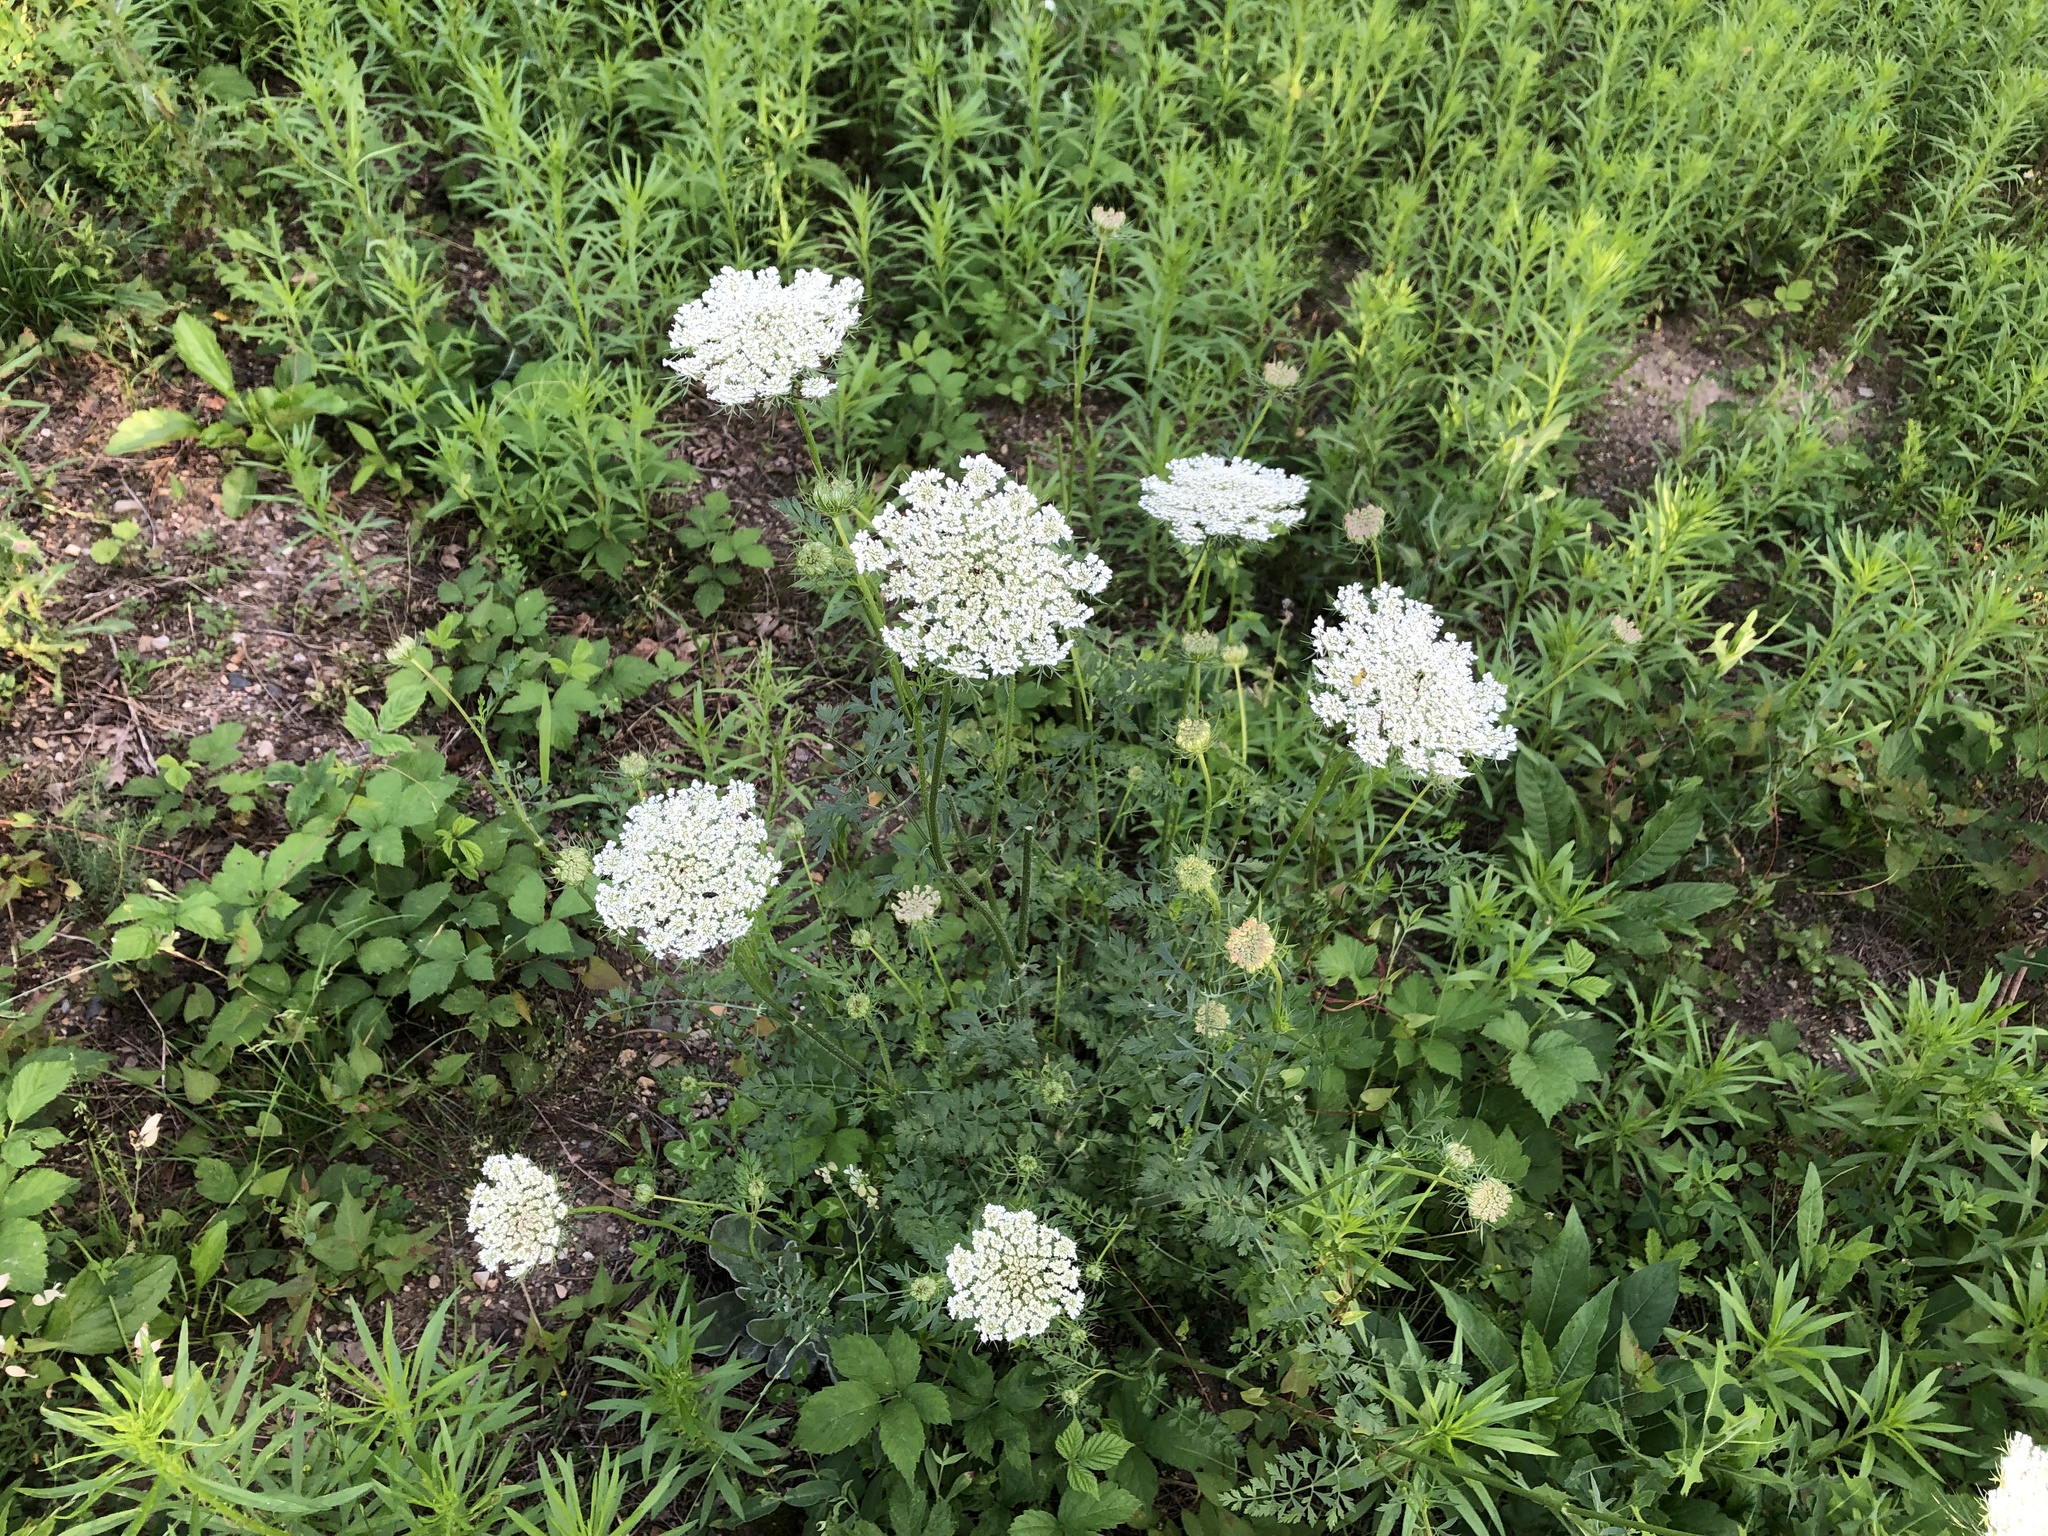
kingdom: Plantae
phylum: Tracheophyta
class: Magnoliopsida
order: Apiales
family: Apiaceae
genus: Daucus
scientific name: Daucus carota
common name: Wild carrot
